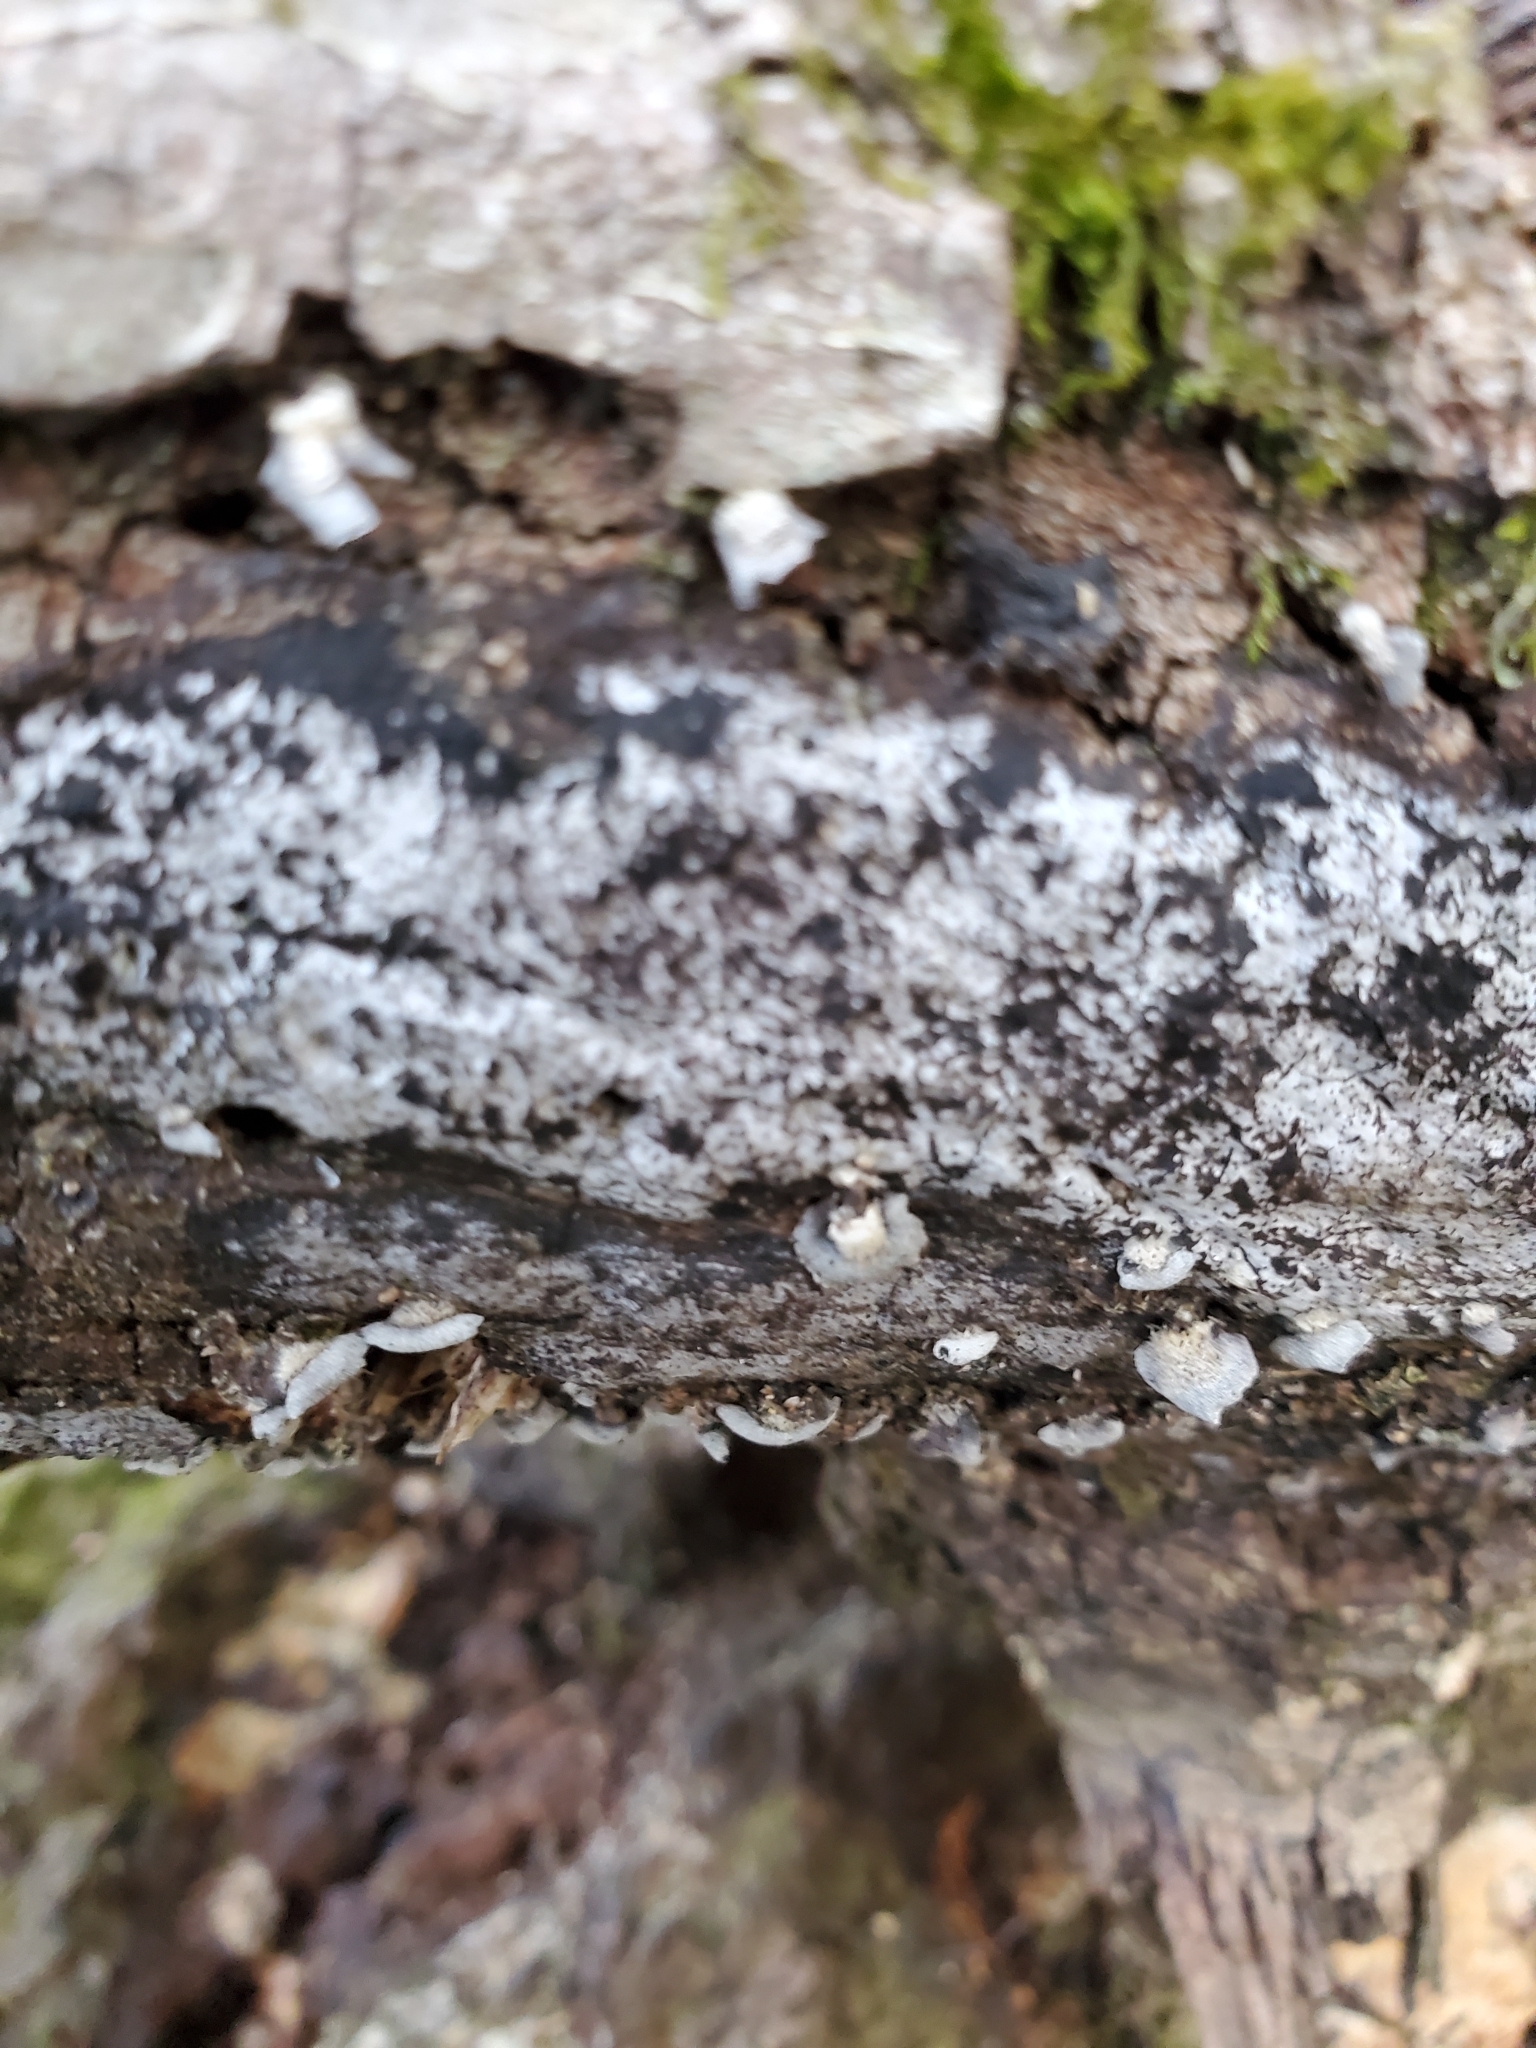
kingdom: Fungi
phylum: Ascomycota
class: Sordariomycetes
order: Xylariales
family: Graphostromataceae
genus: Biscogniauxia
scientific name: Biscogniauxia atropunctata
